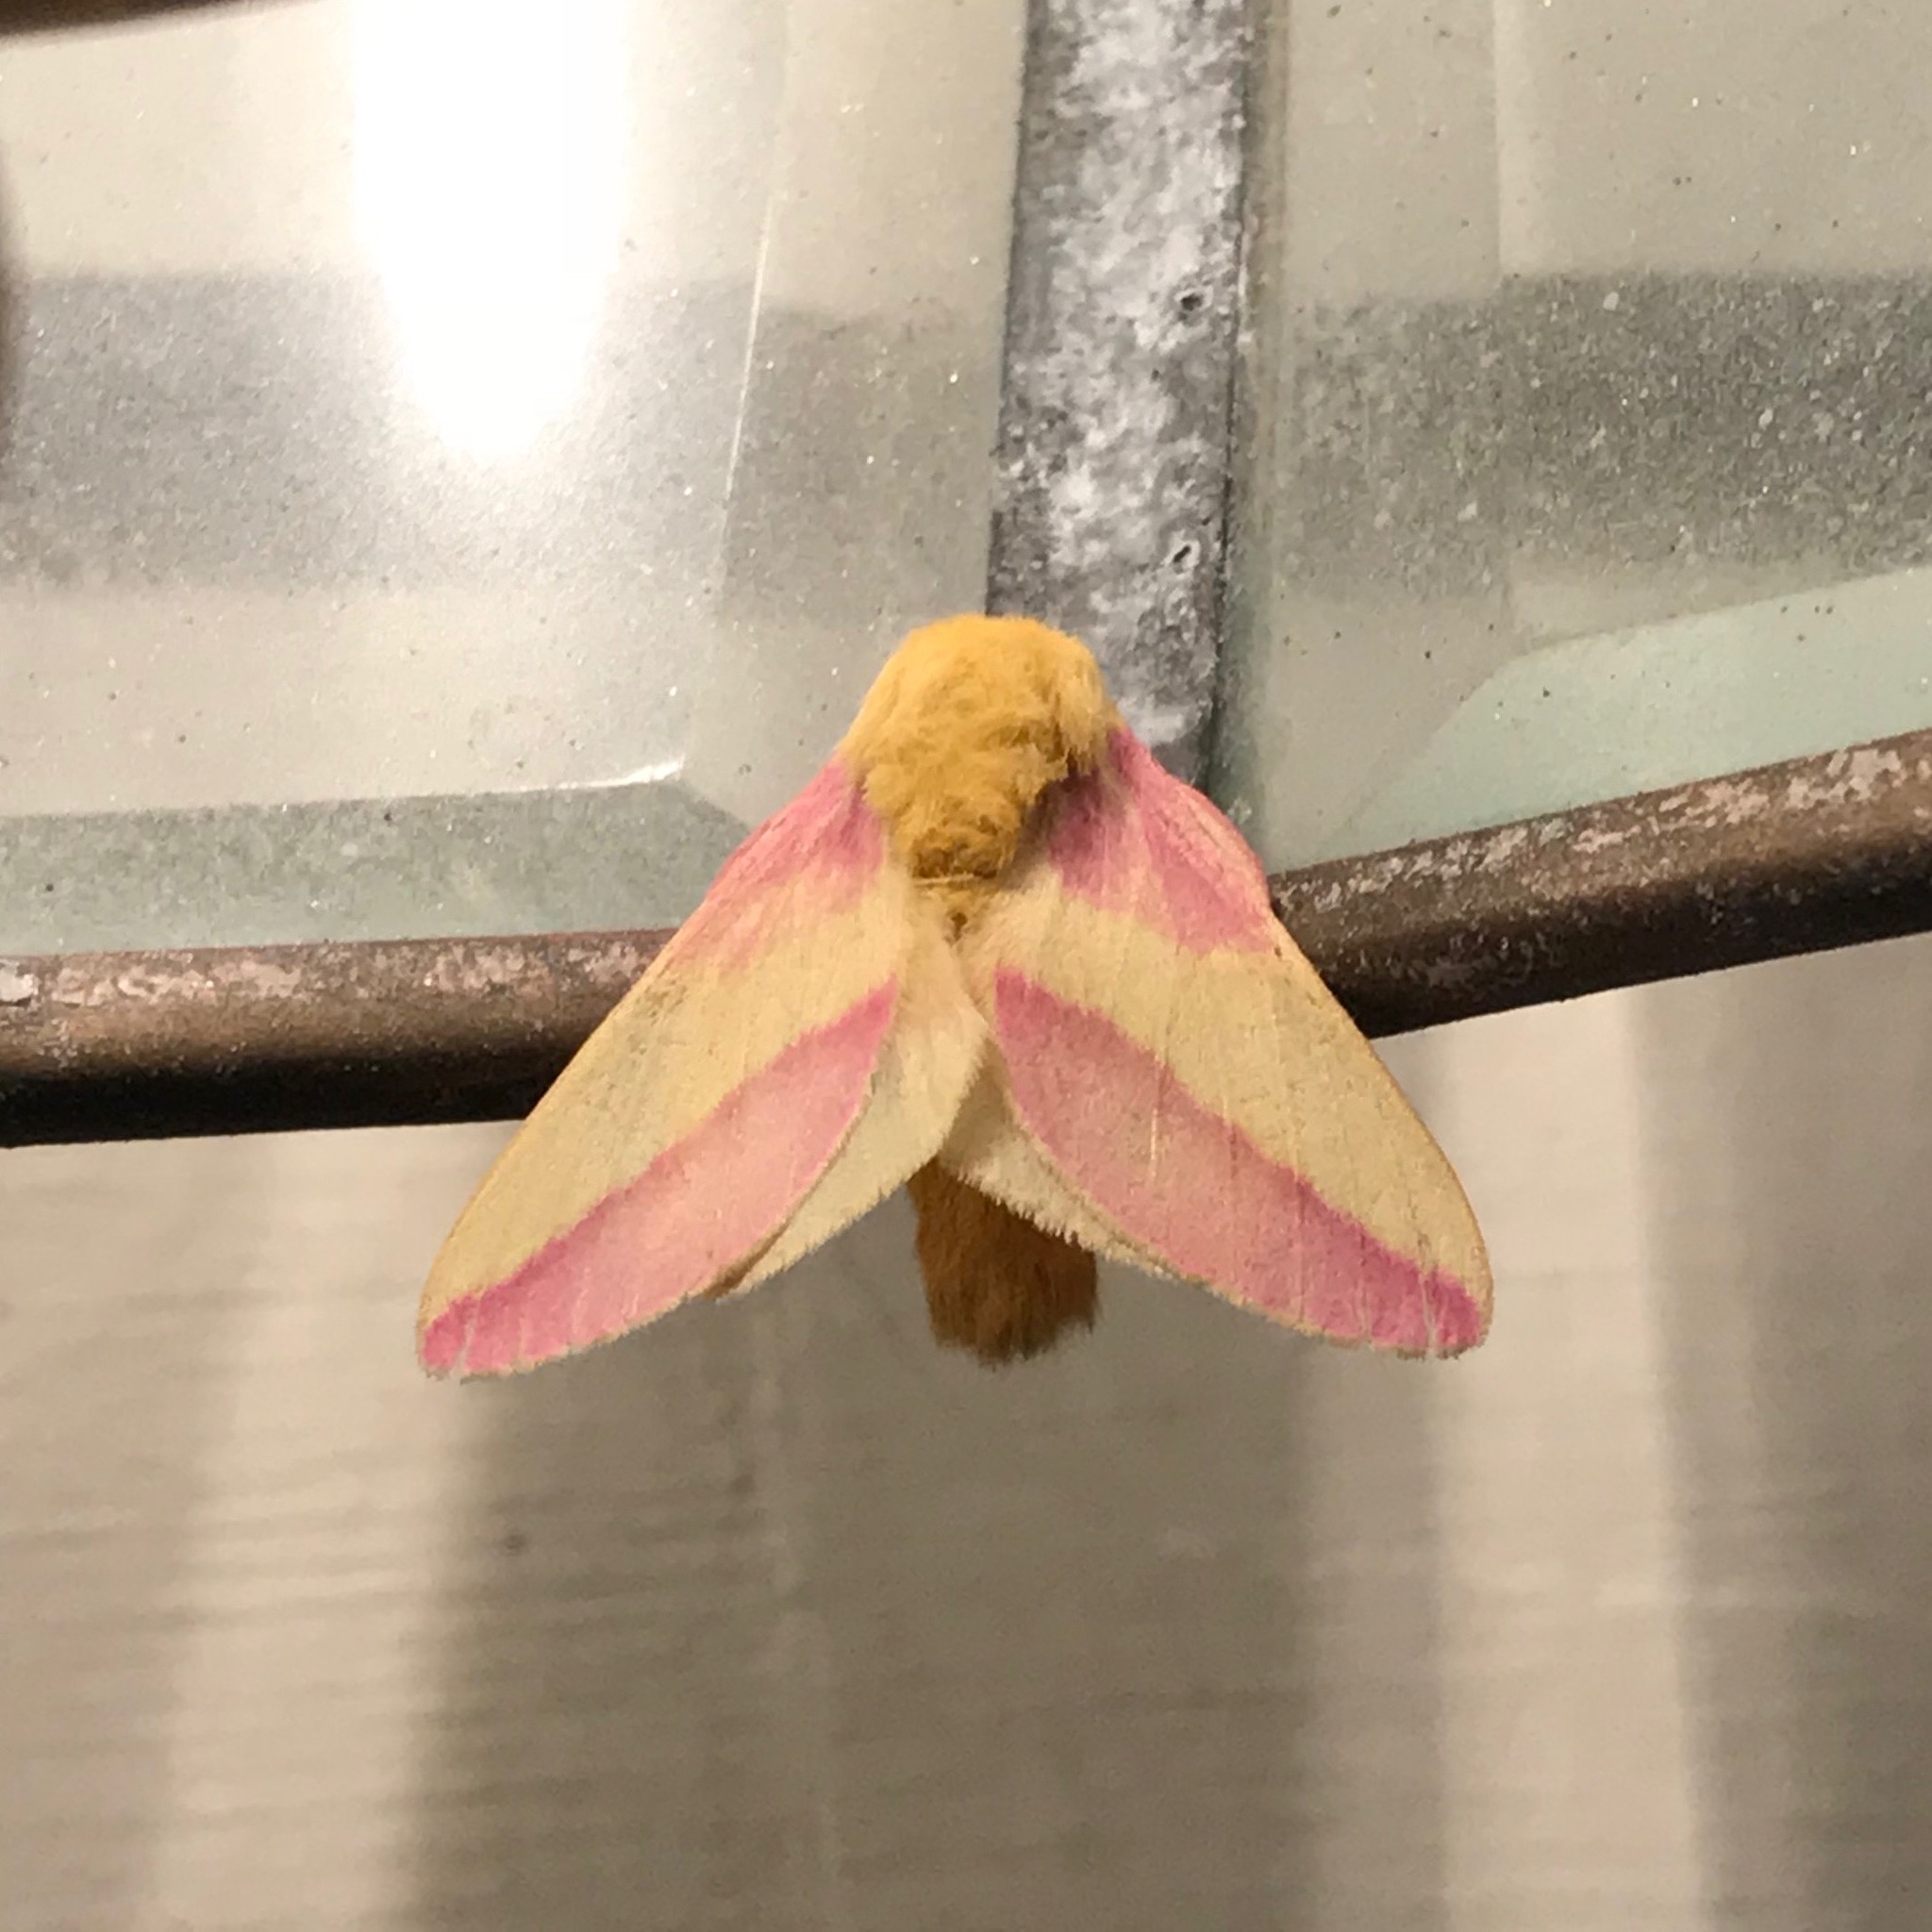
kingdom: Animalia
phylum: Arthropoda
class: Insecta
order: Lepidoptera
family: Saturniidae
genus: Dryocampa
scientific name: Dryocampa rubicunda
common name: Rosy maple moth
